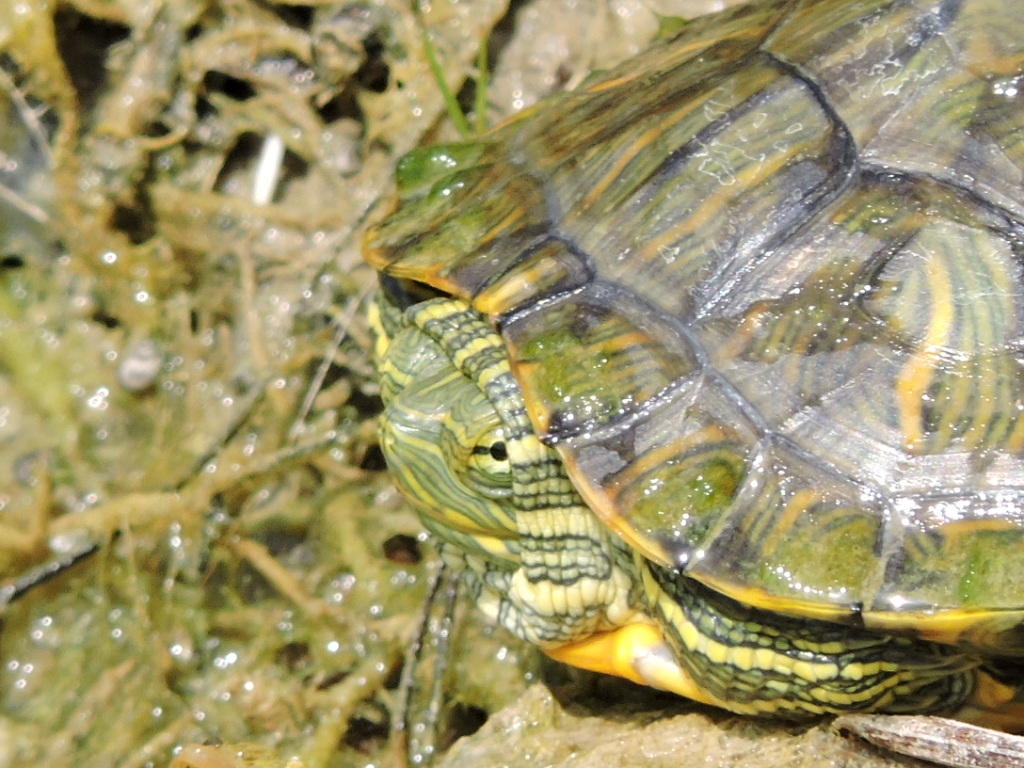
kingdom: Animalia
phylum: Chordata
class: Testudines
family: Emydidae
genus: Trachemys
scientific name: Trachemys scripta
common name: Slider
